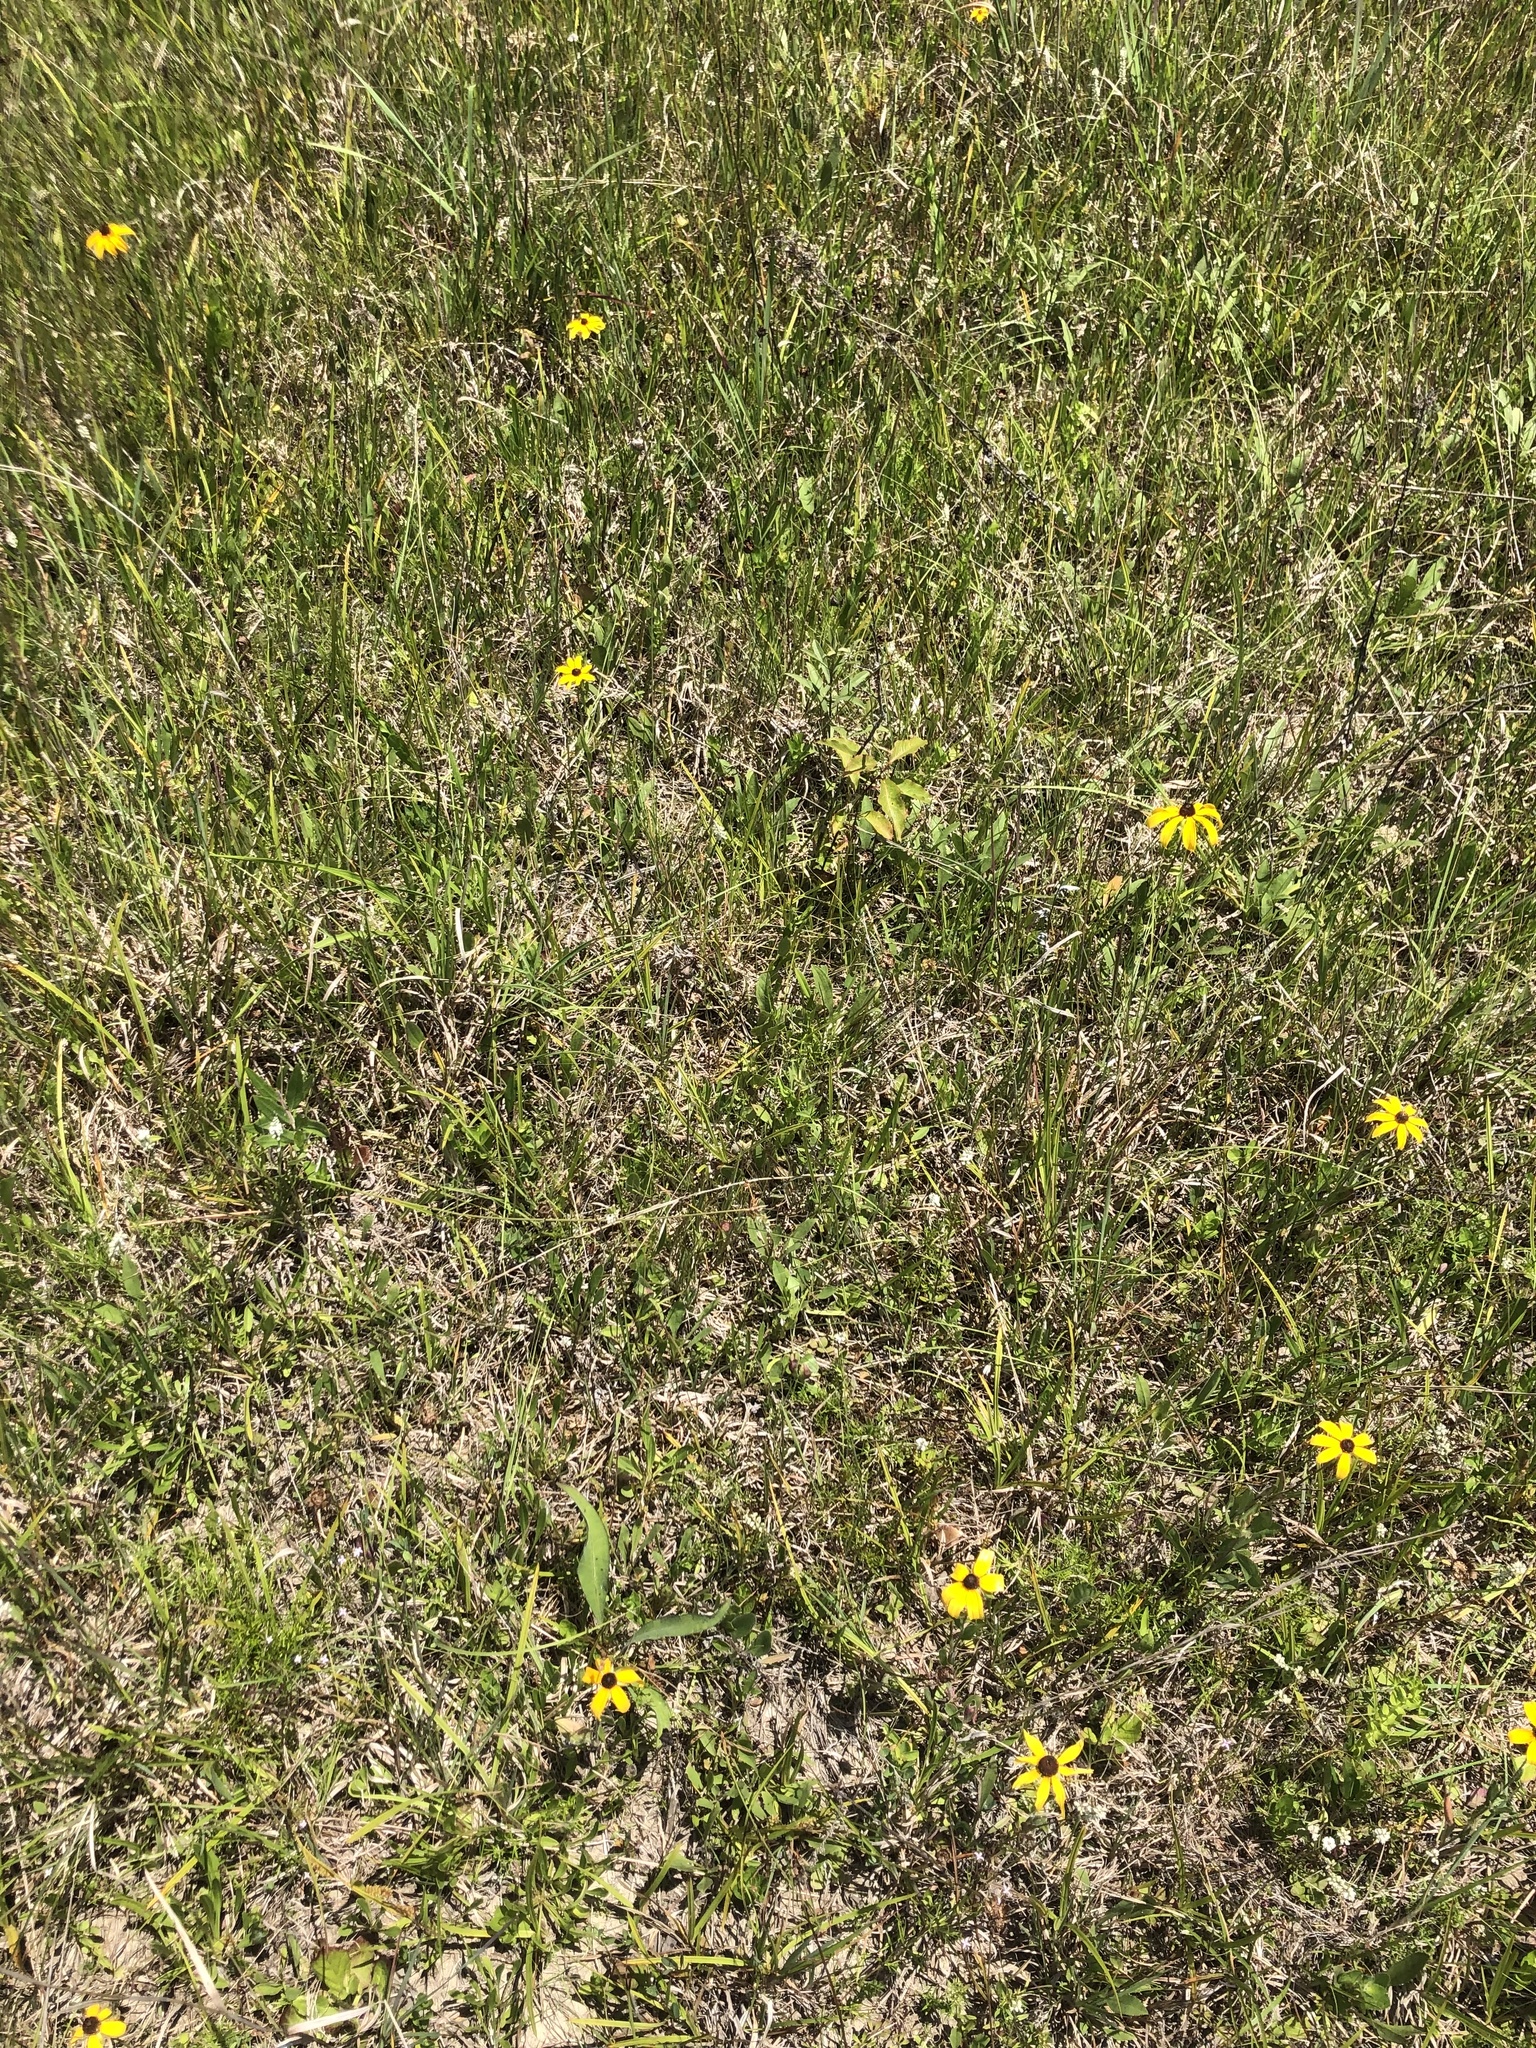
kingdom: Plantae
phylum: Tracheophyta
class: Magnoliopsida
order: Asterales
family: Asteraceae
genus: Rudbeckia
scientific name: Rudbeckia hirta
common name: Black-eyed-susan
